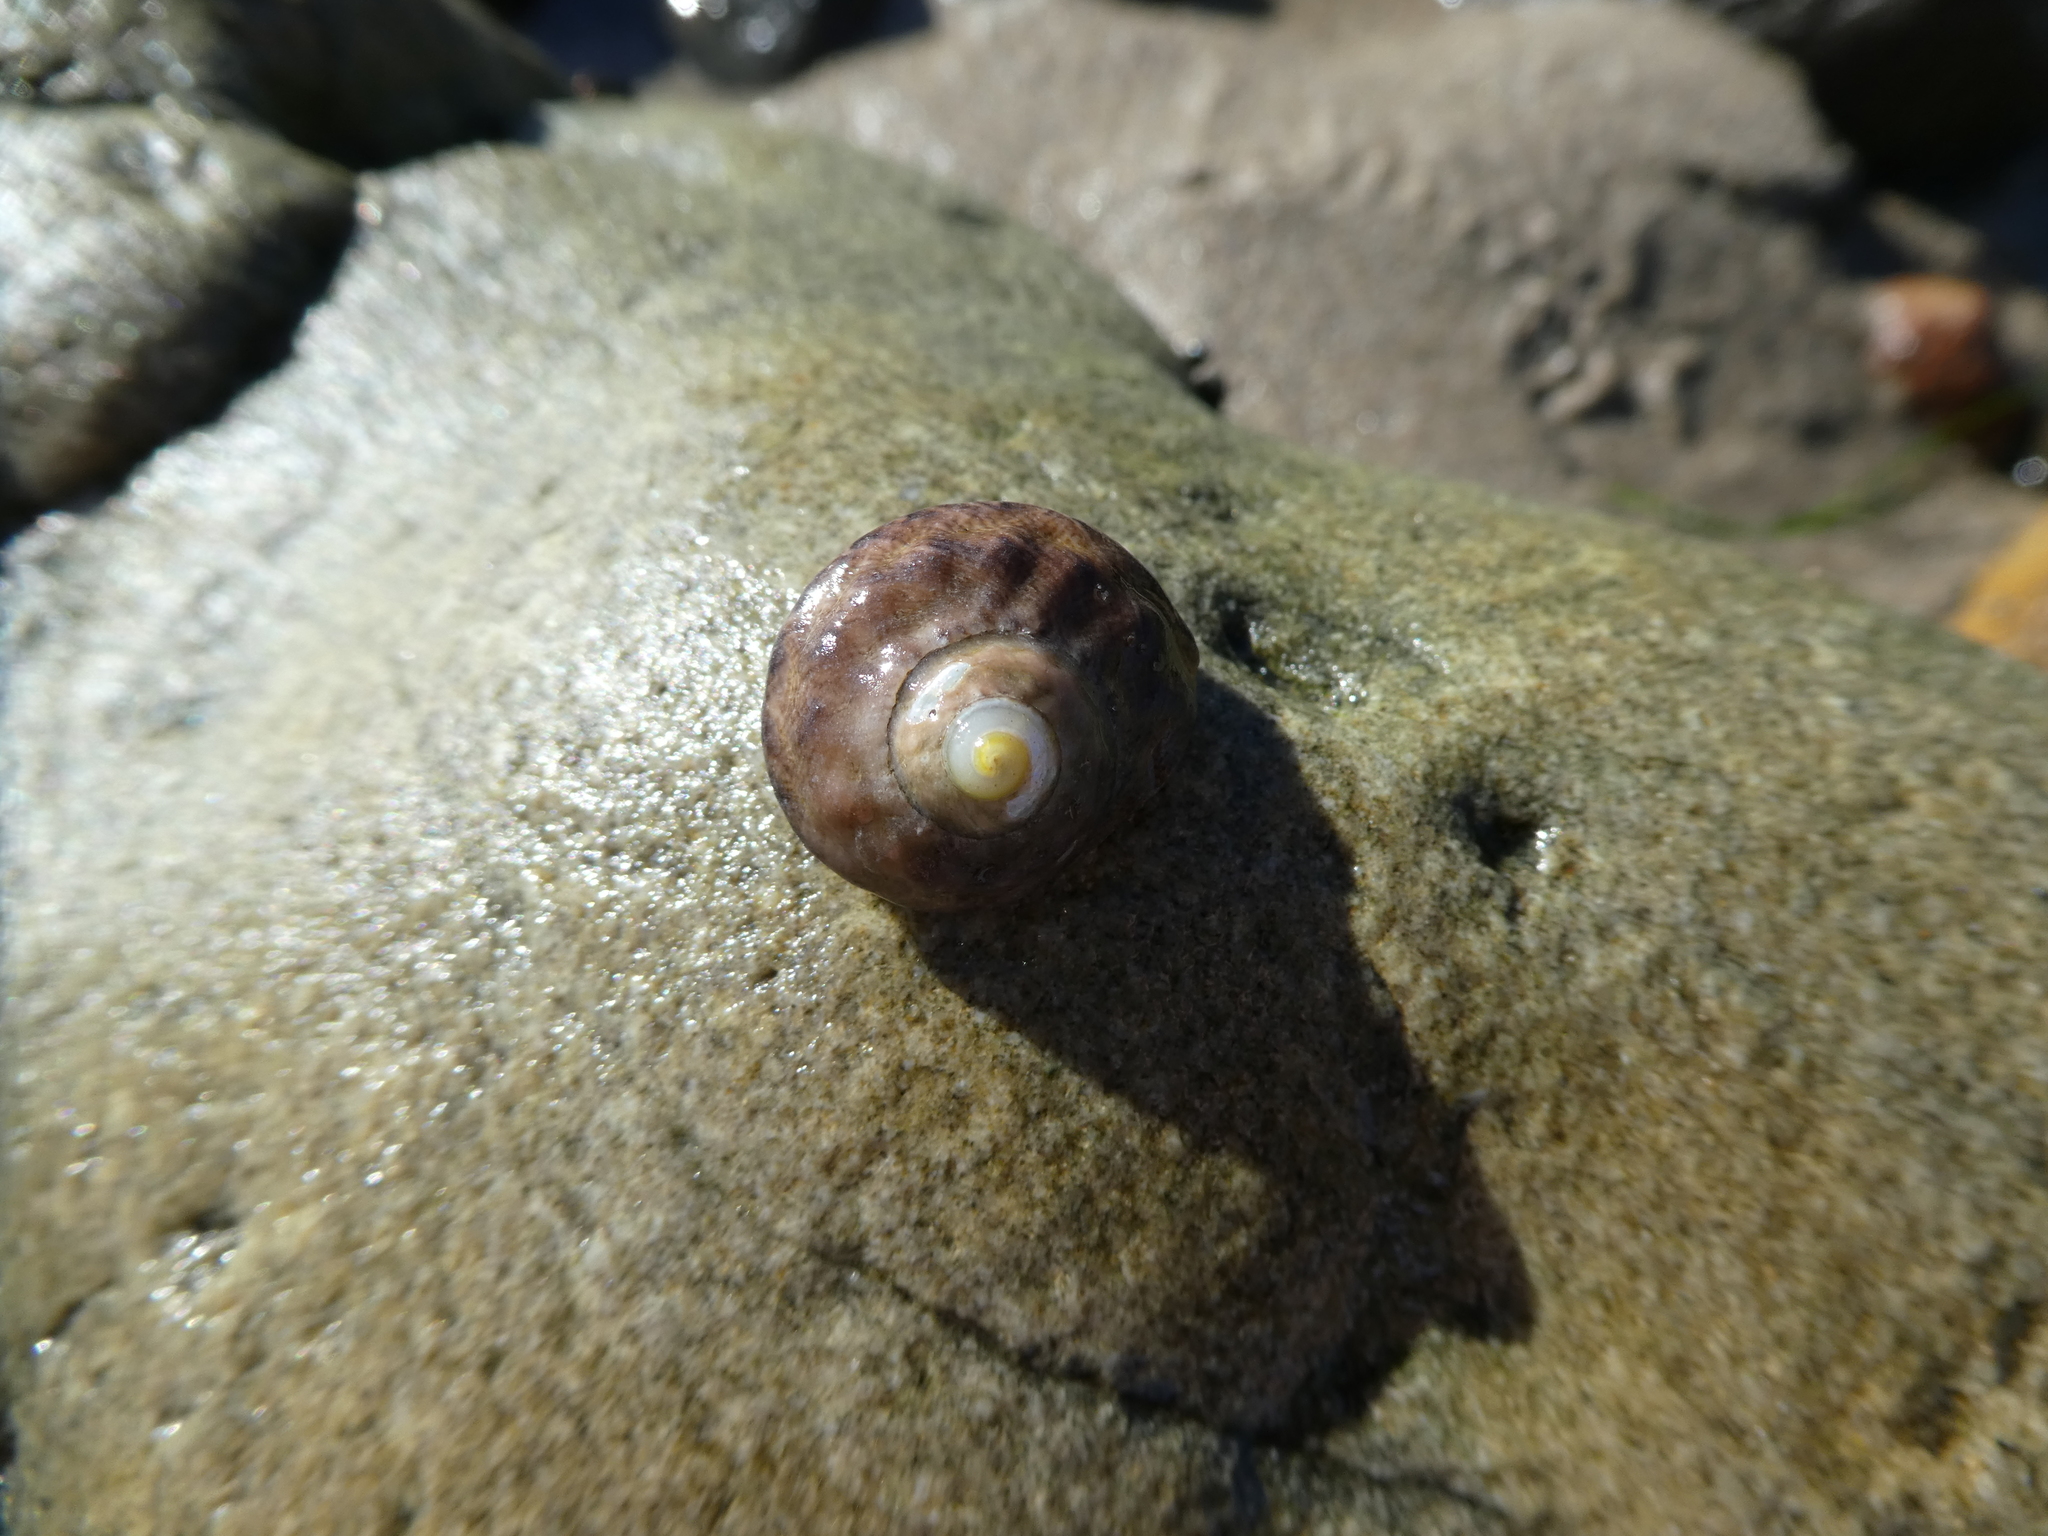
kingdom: Animalia
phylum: Mollusca
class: Gastropoda
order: Trochida
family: Tegulidae
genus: Tegula
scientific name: Tegula aureotincta
